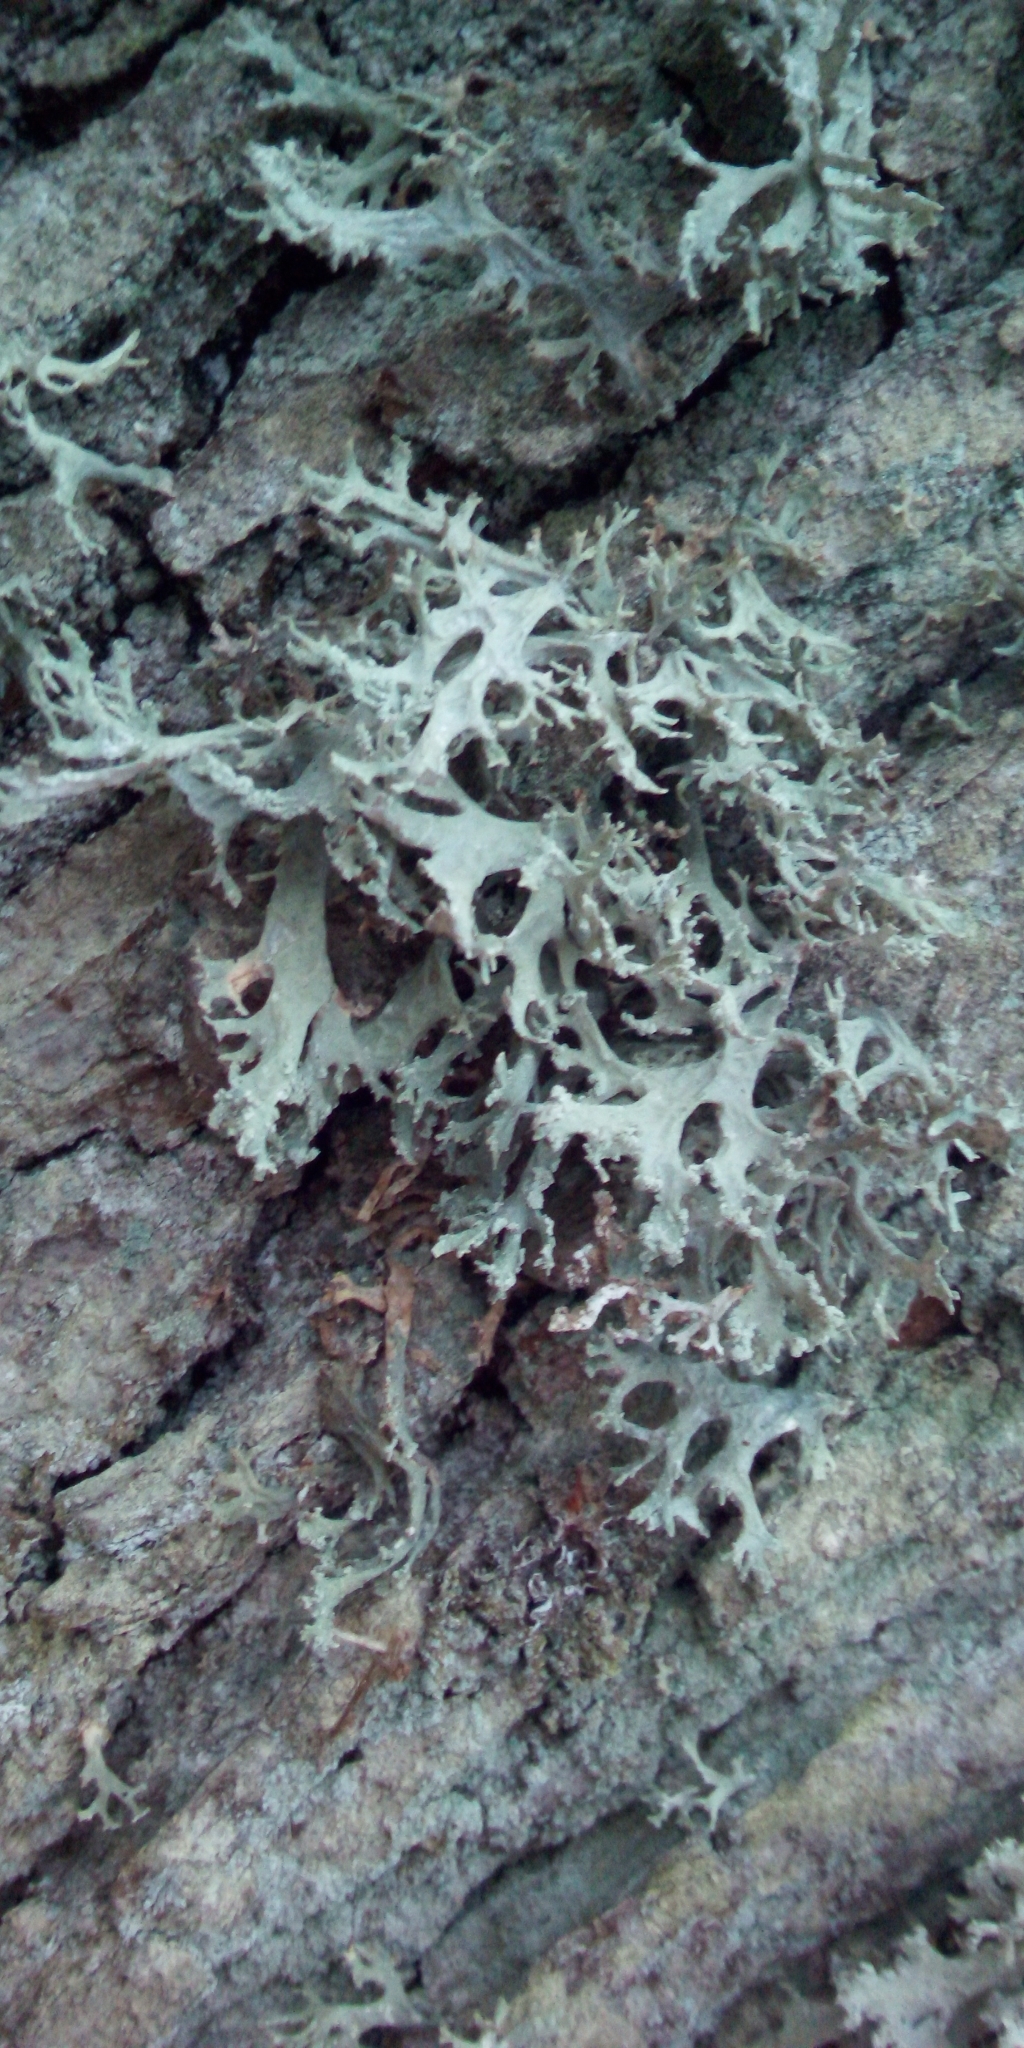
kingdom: Fungi
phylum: Ascomycota
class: Lecanoromycetes
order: Lecanorales
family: Parmeliaceae
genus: Evernia
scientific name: Evernia prunastri
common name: Oak moss
